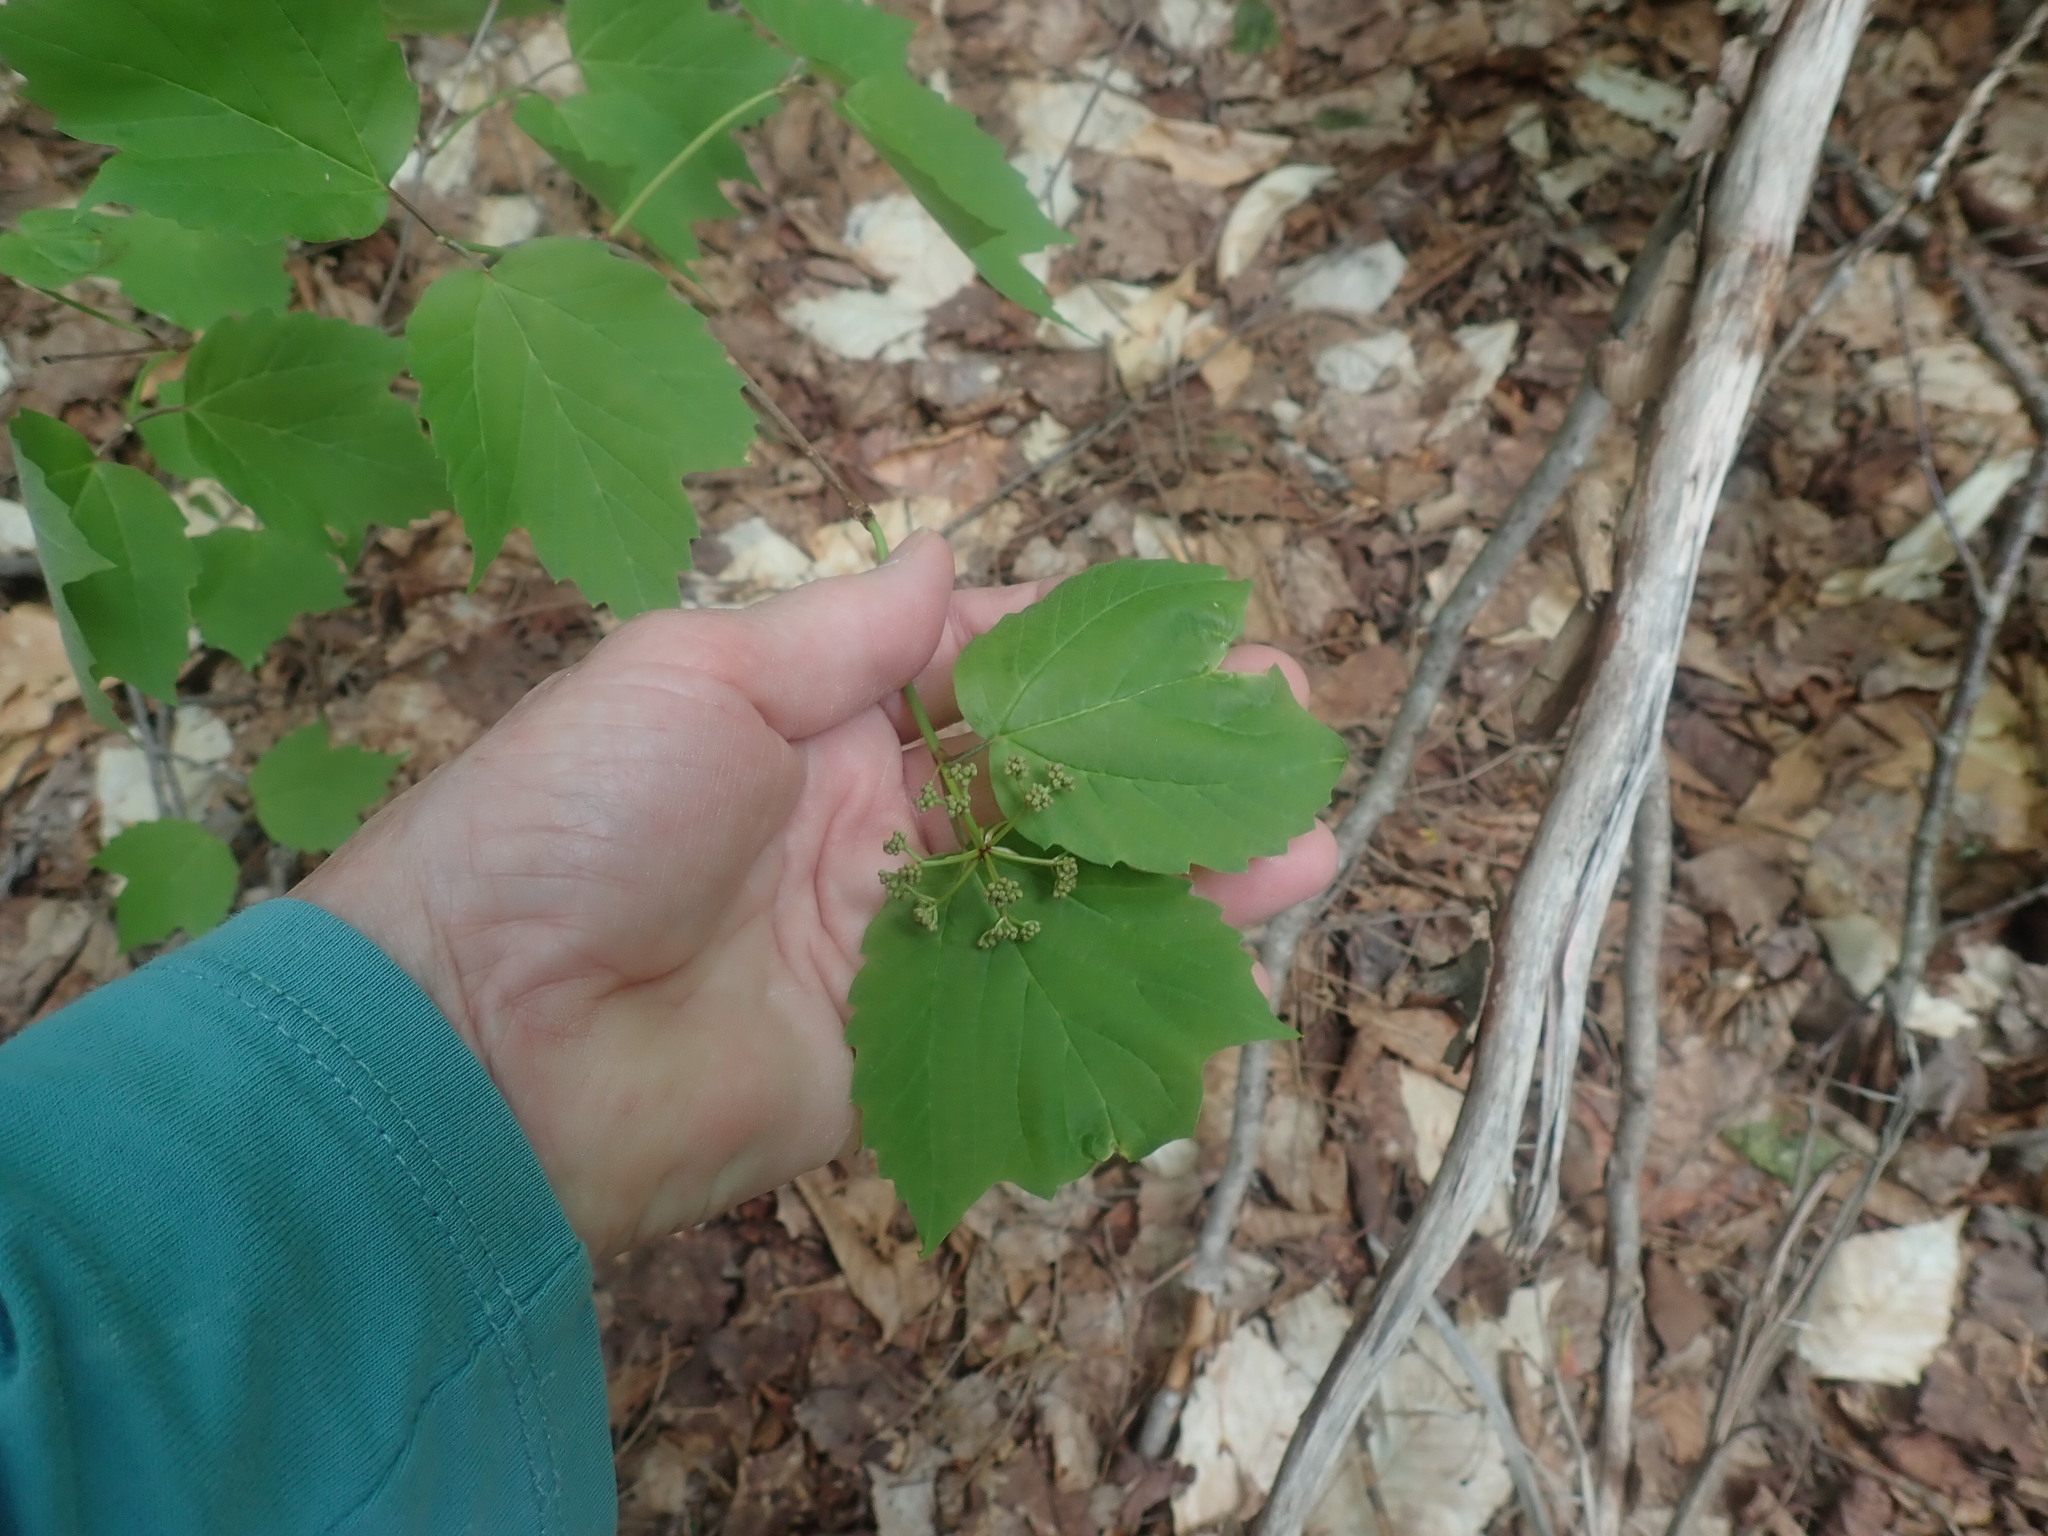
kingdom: Plantae
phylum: Tracheophyta
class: Magnoliopsida
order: Dipsacales
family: Viburnaceae
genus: Viburnum
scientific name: Viburnum acerifolium
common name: Dockmackie
